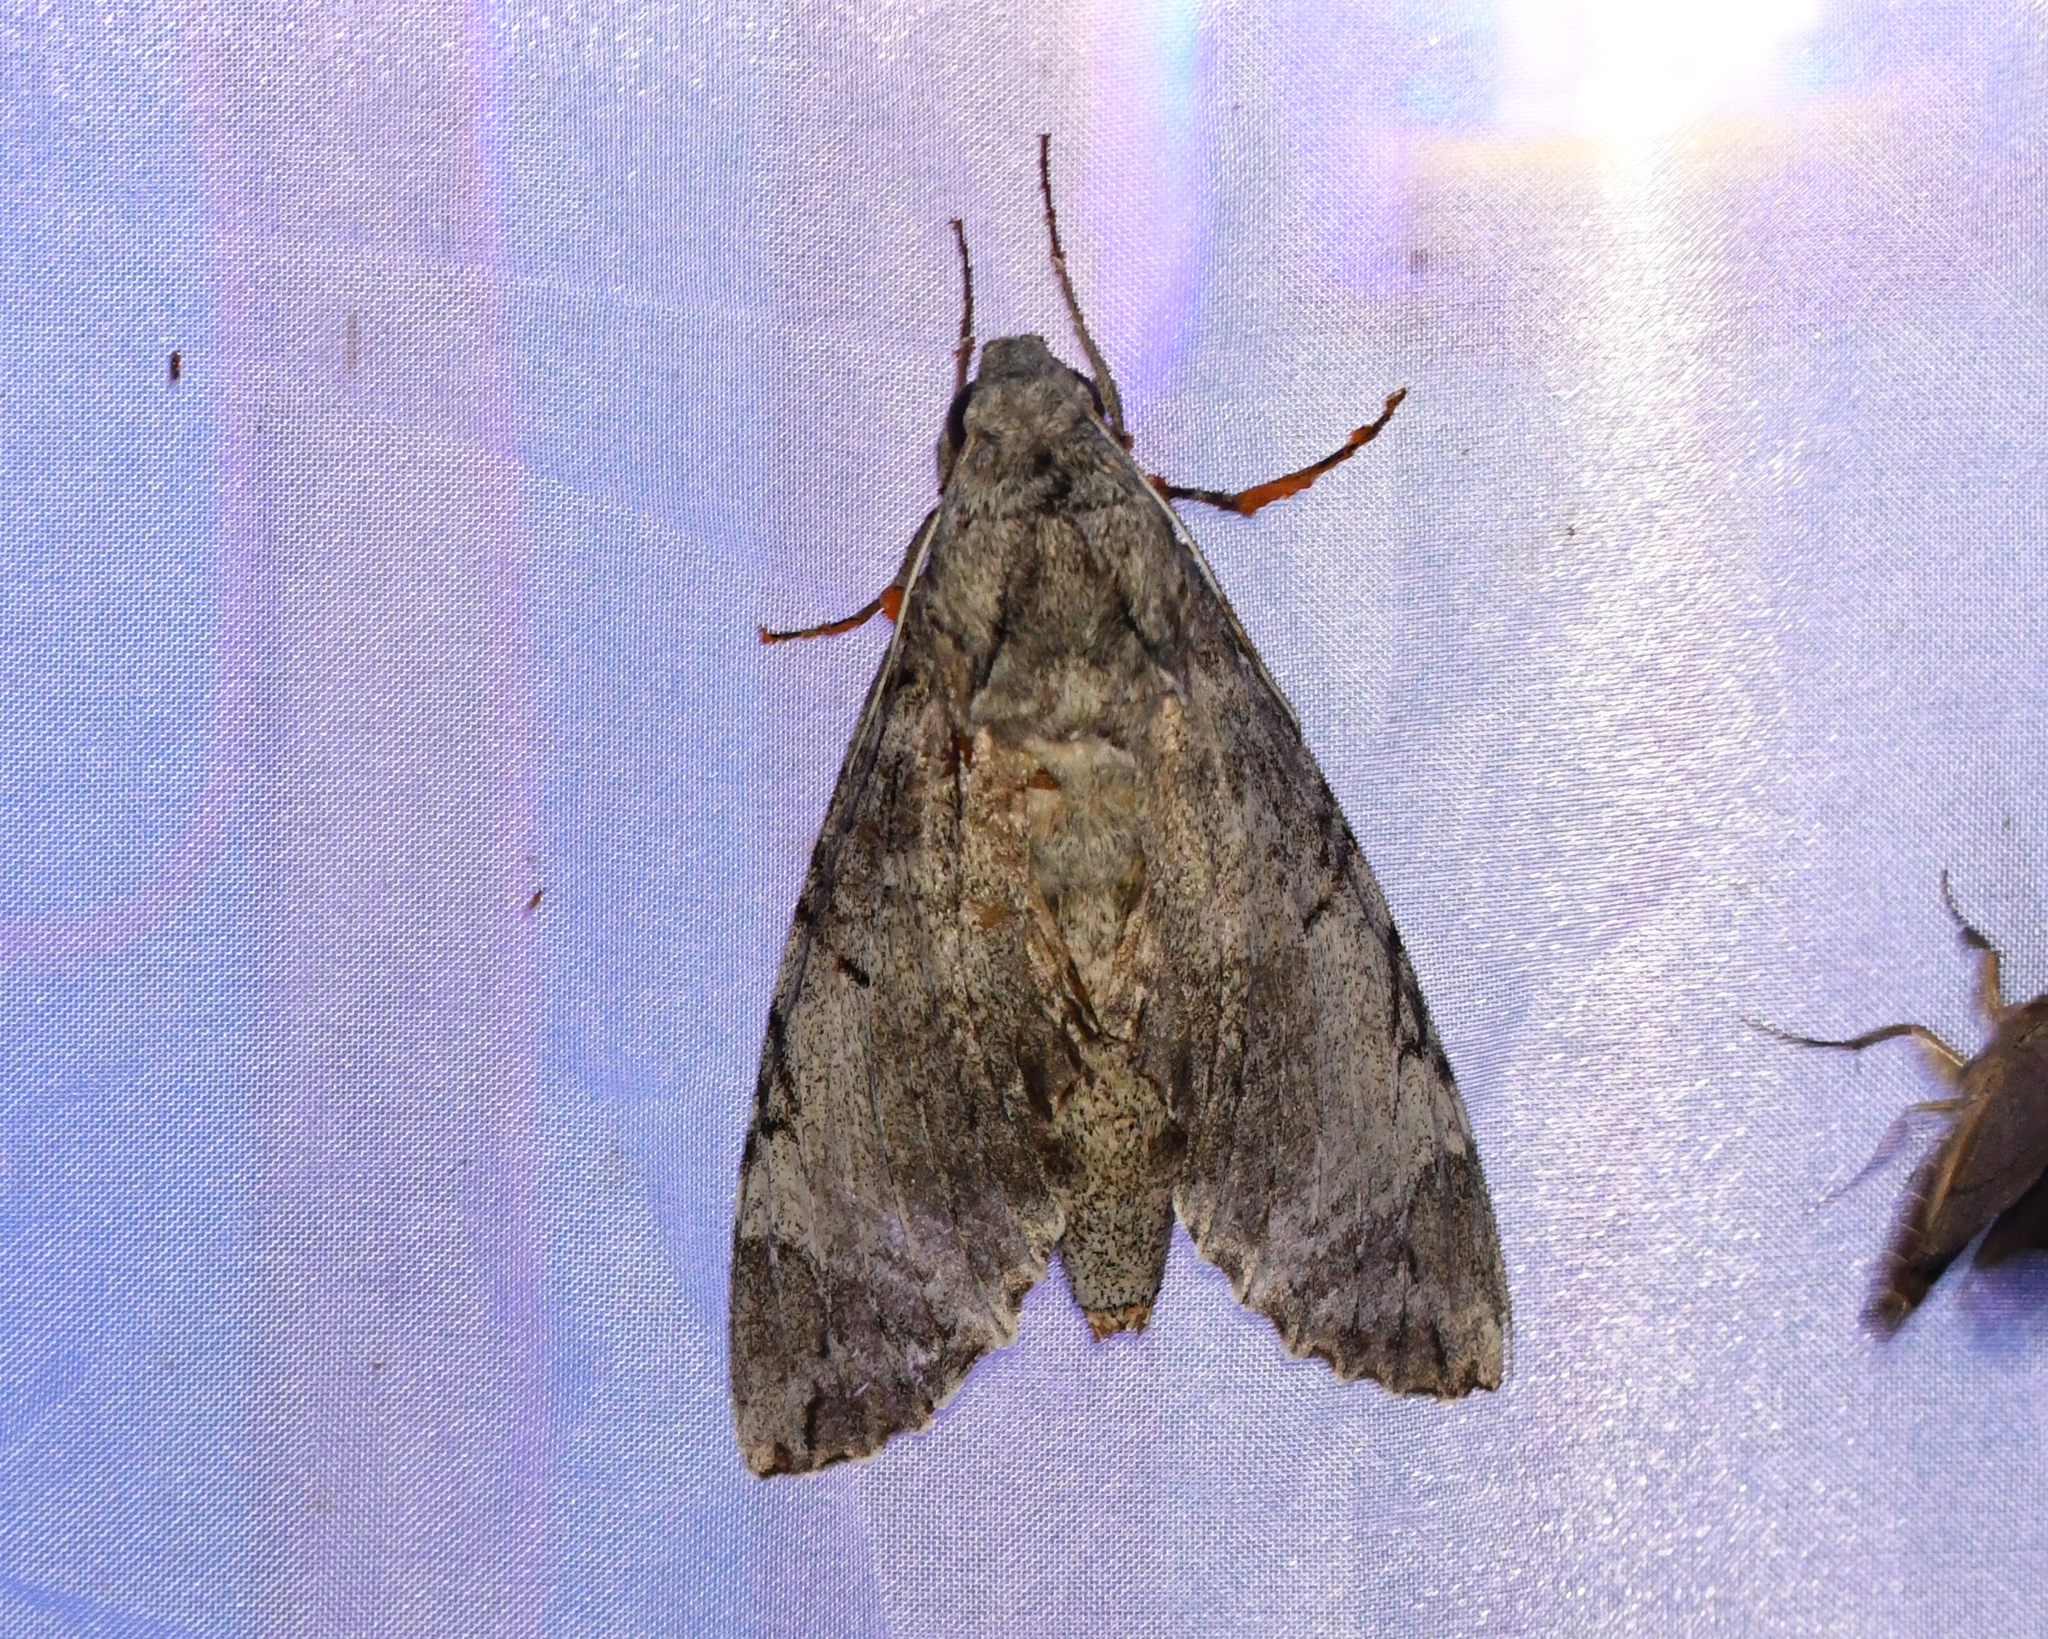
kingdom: Animalia
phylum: Arthropoda
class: Insecta
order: Lepidoptera
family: Sphingidae
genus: Pseudosphinx
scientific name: Pseudosphinx tetrio
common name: Tetrio sphinx
